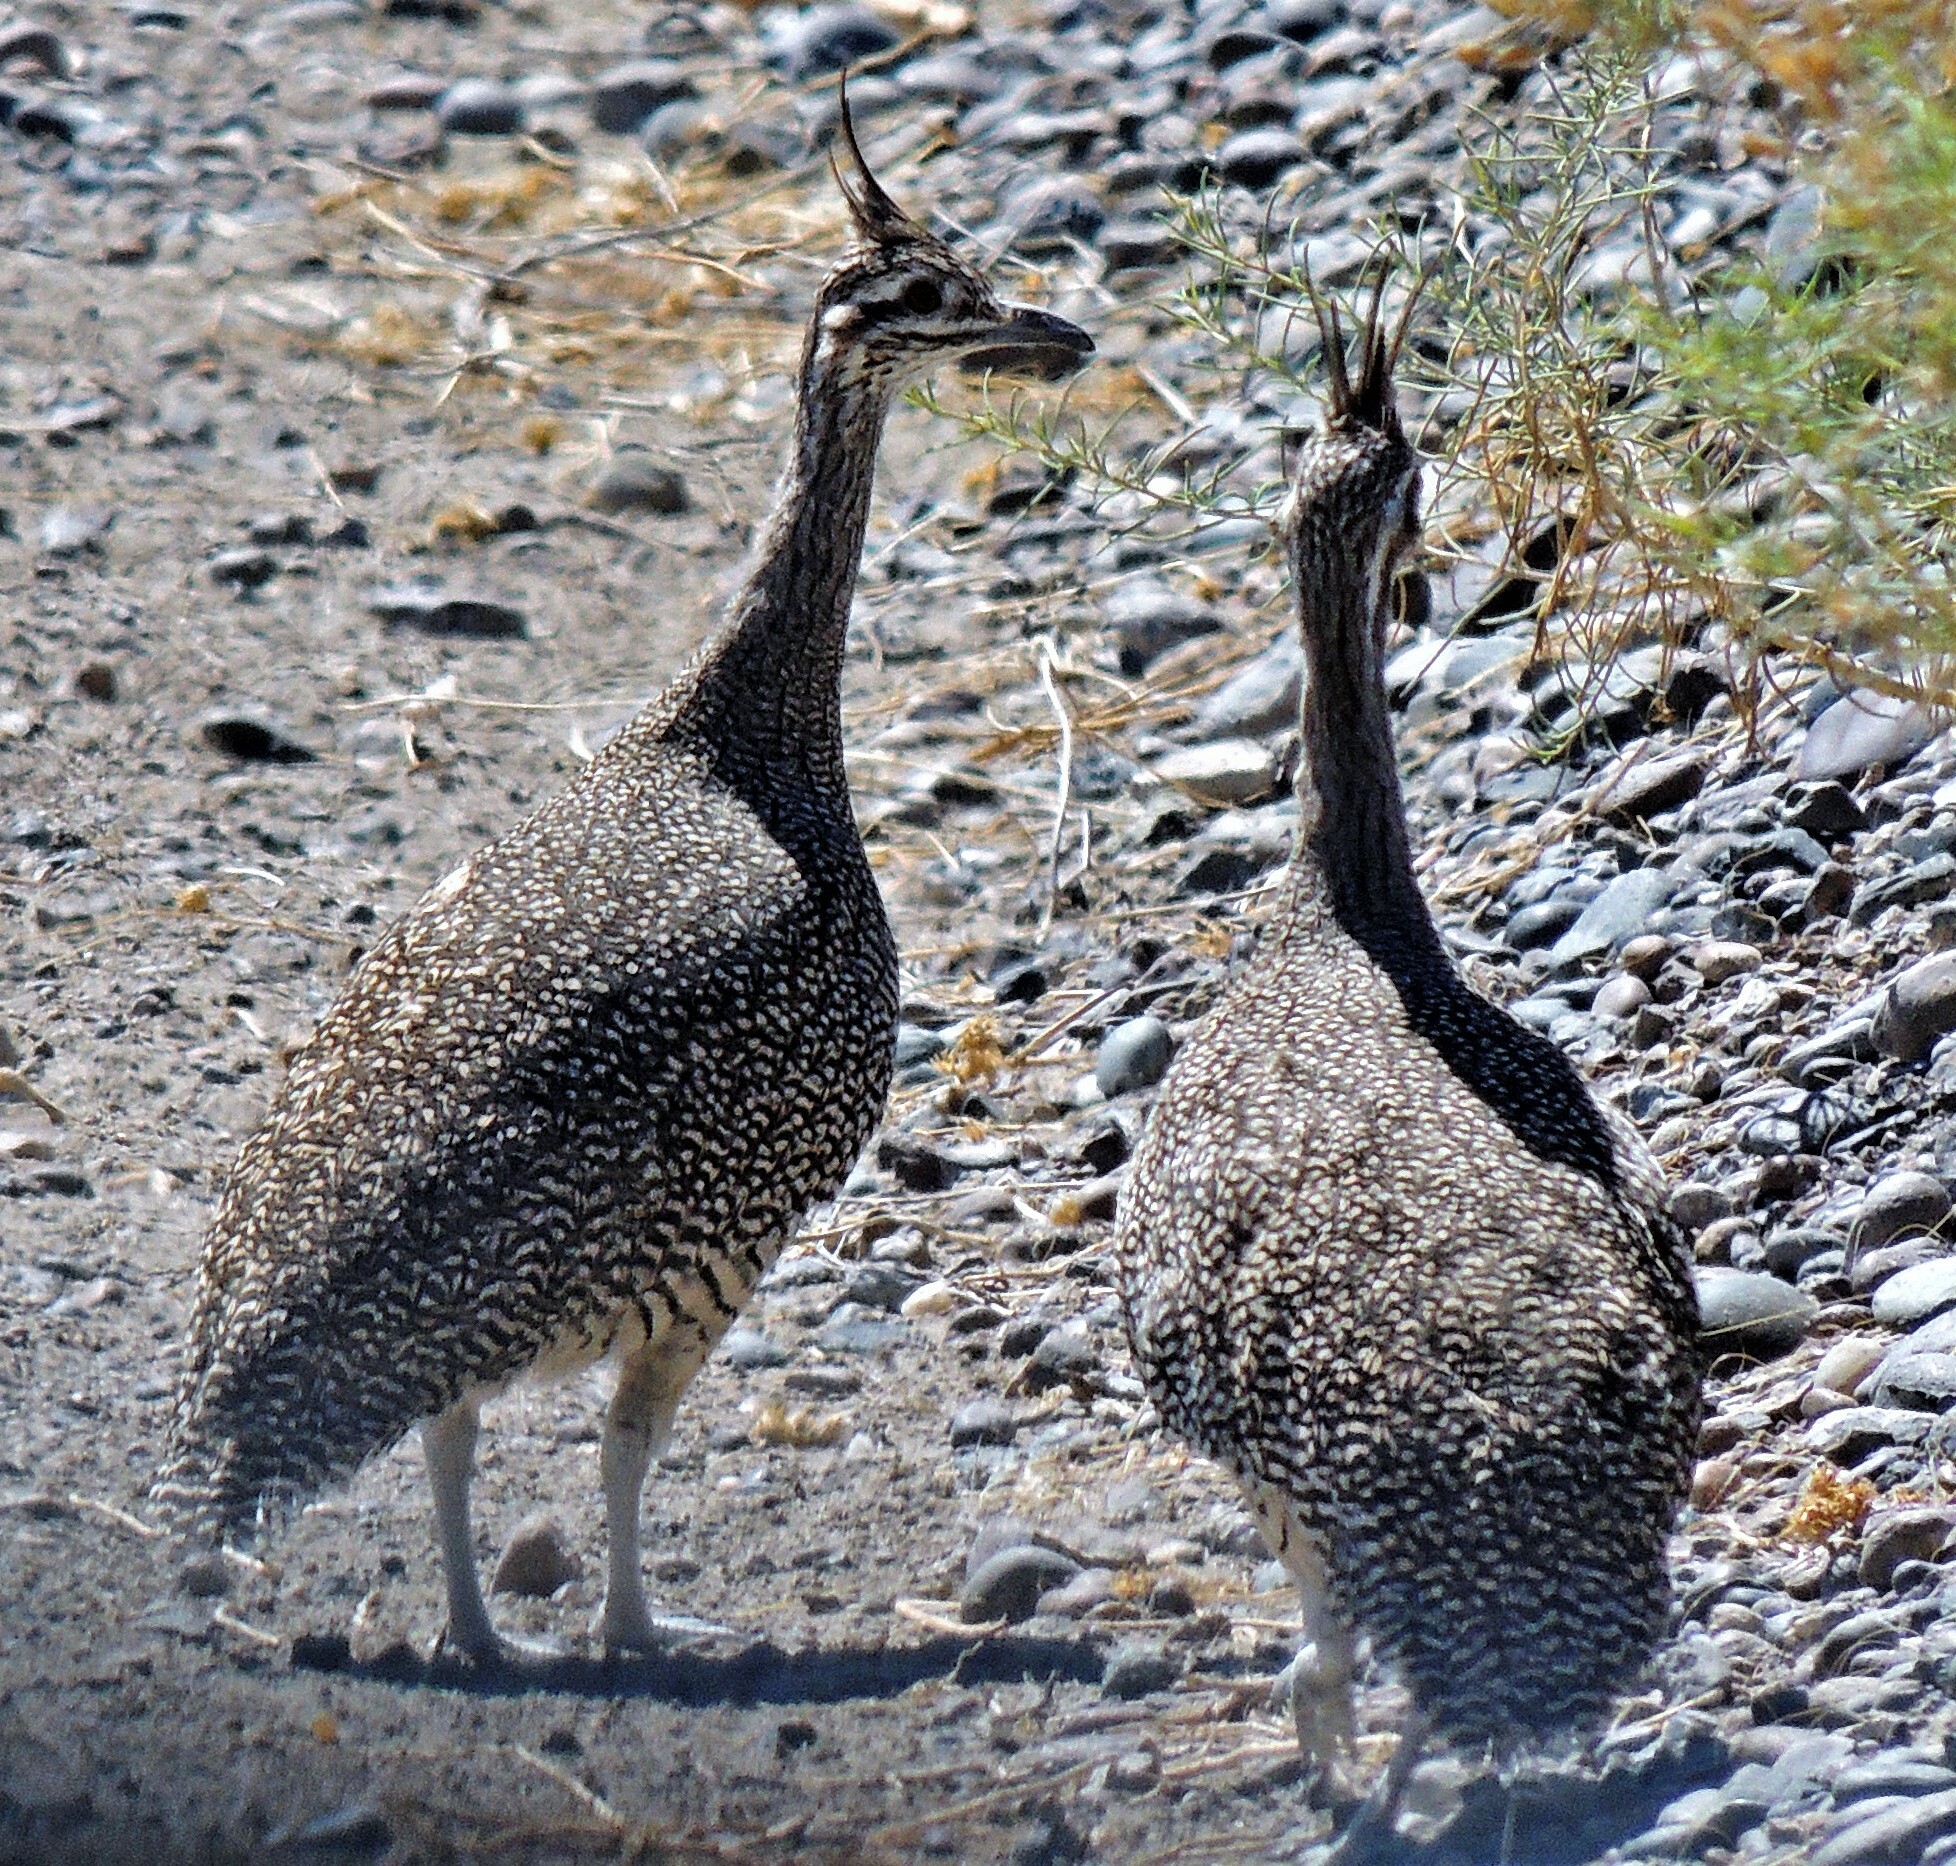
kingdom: Animalia
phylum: Chordata
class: Aves
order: Tinamiformes
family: Tinamidae
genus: Eudromia
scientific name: Eudromia elegans
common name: Elegant crested tinamou
